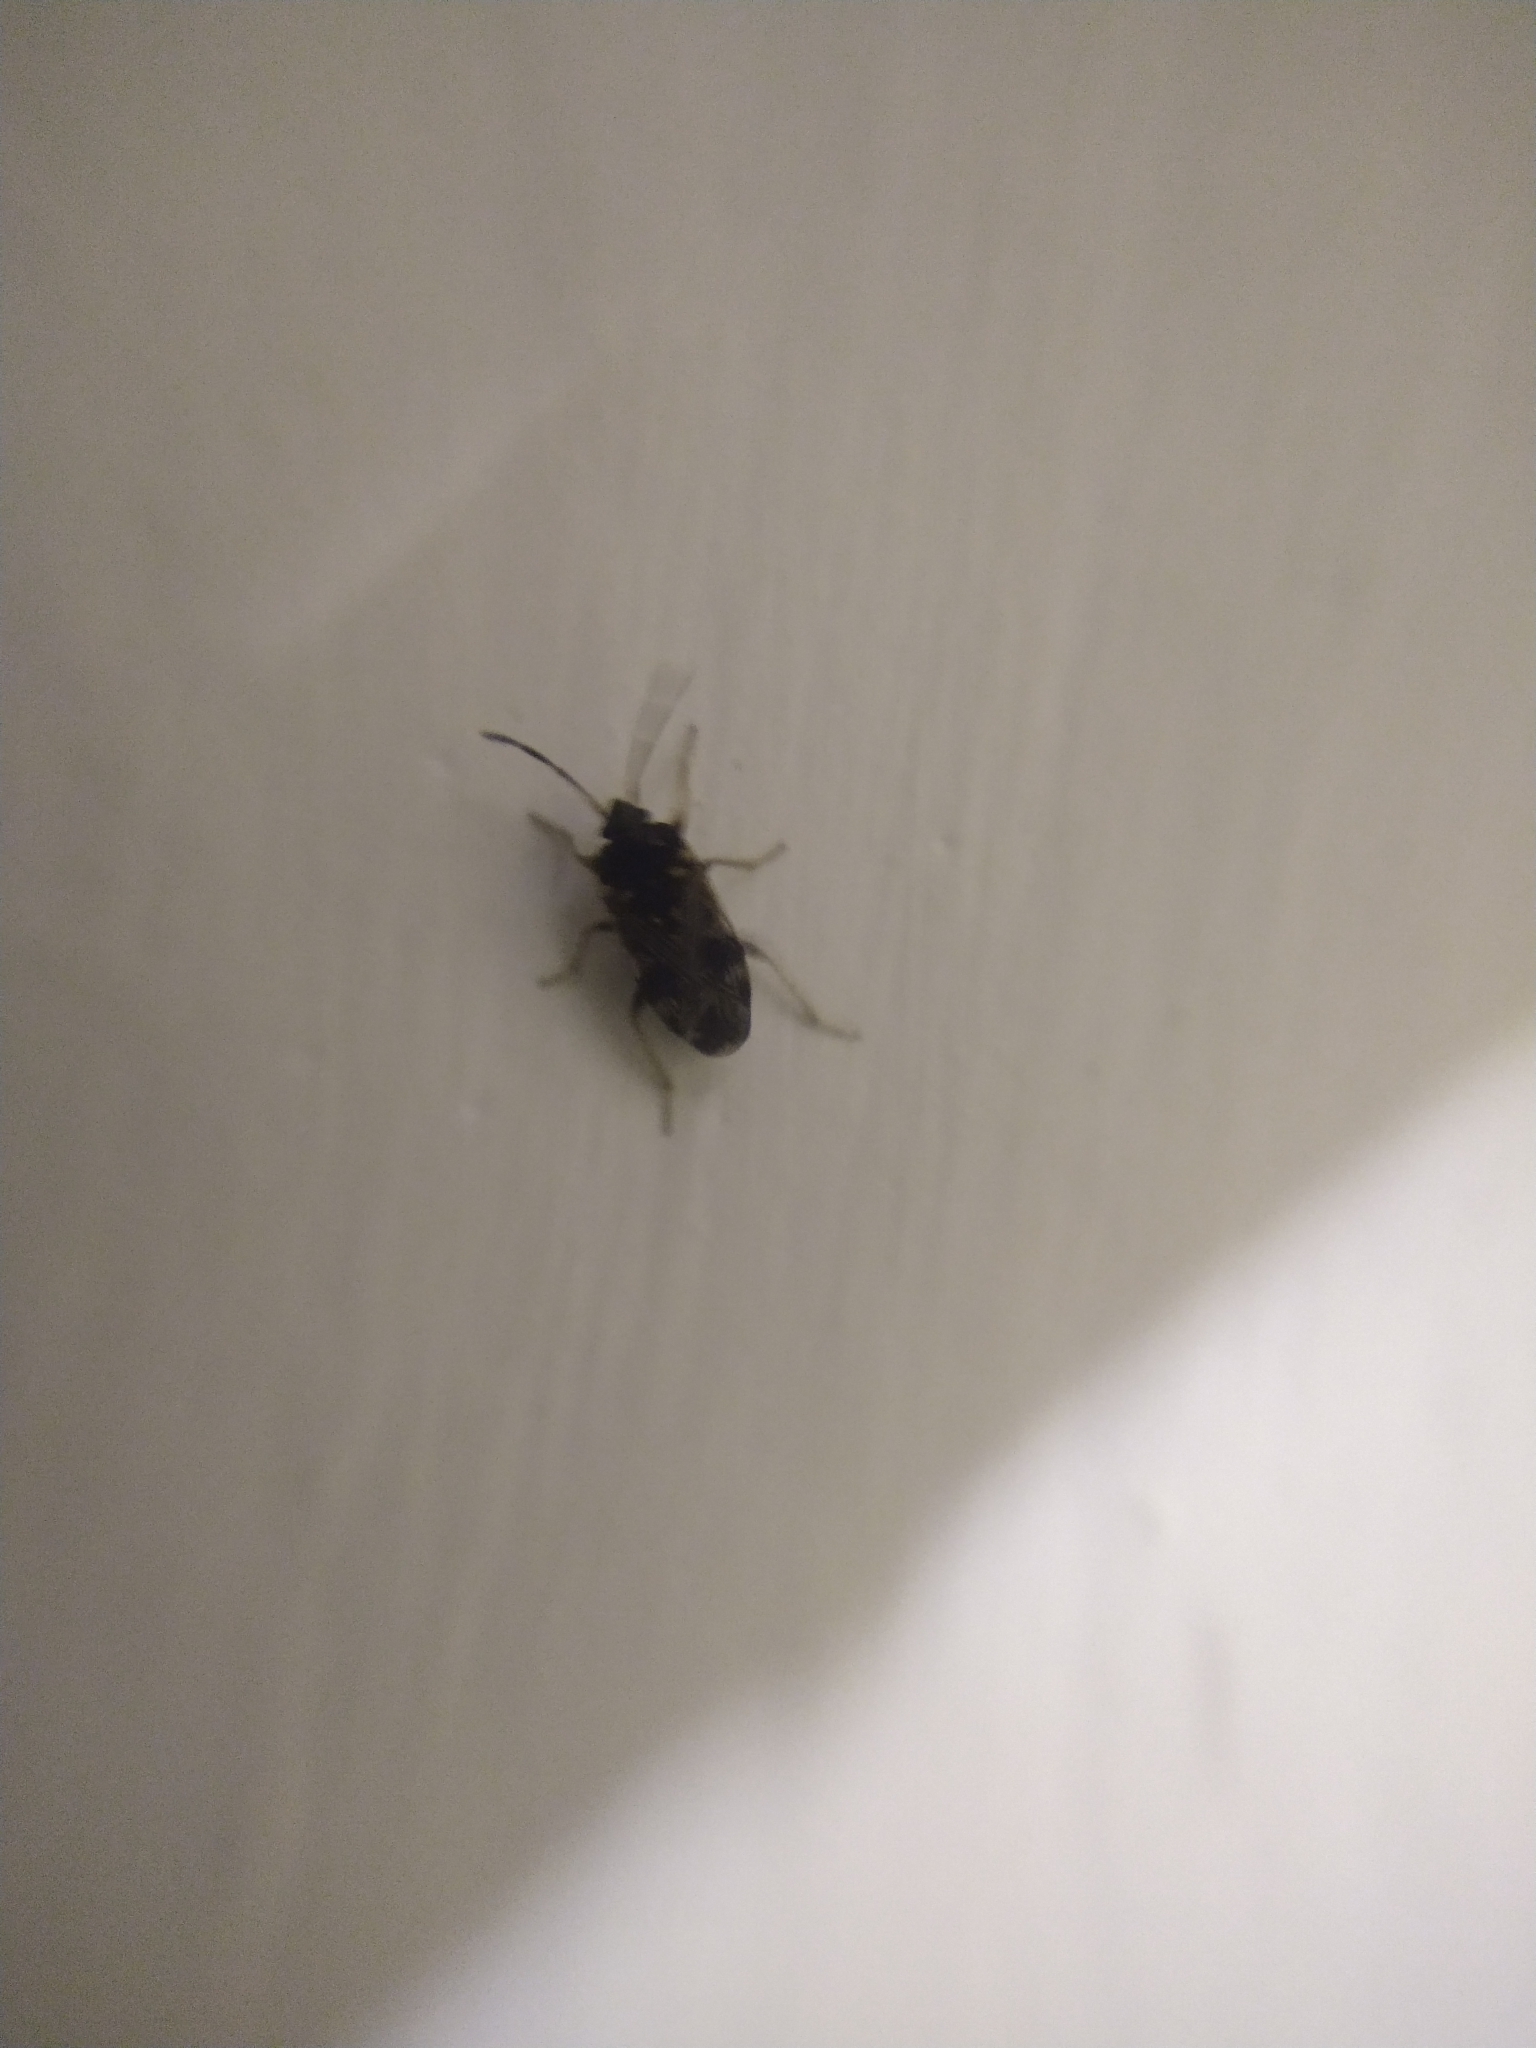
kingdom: Animalia
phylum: Arthropoda
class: Insecta
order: Hemiptera
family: Rhyparochromidae
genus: Cryphula
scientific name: Cryphula affinis
